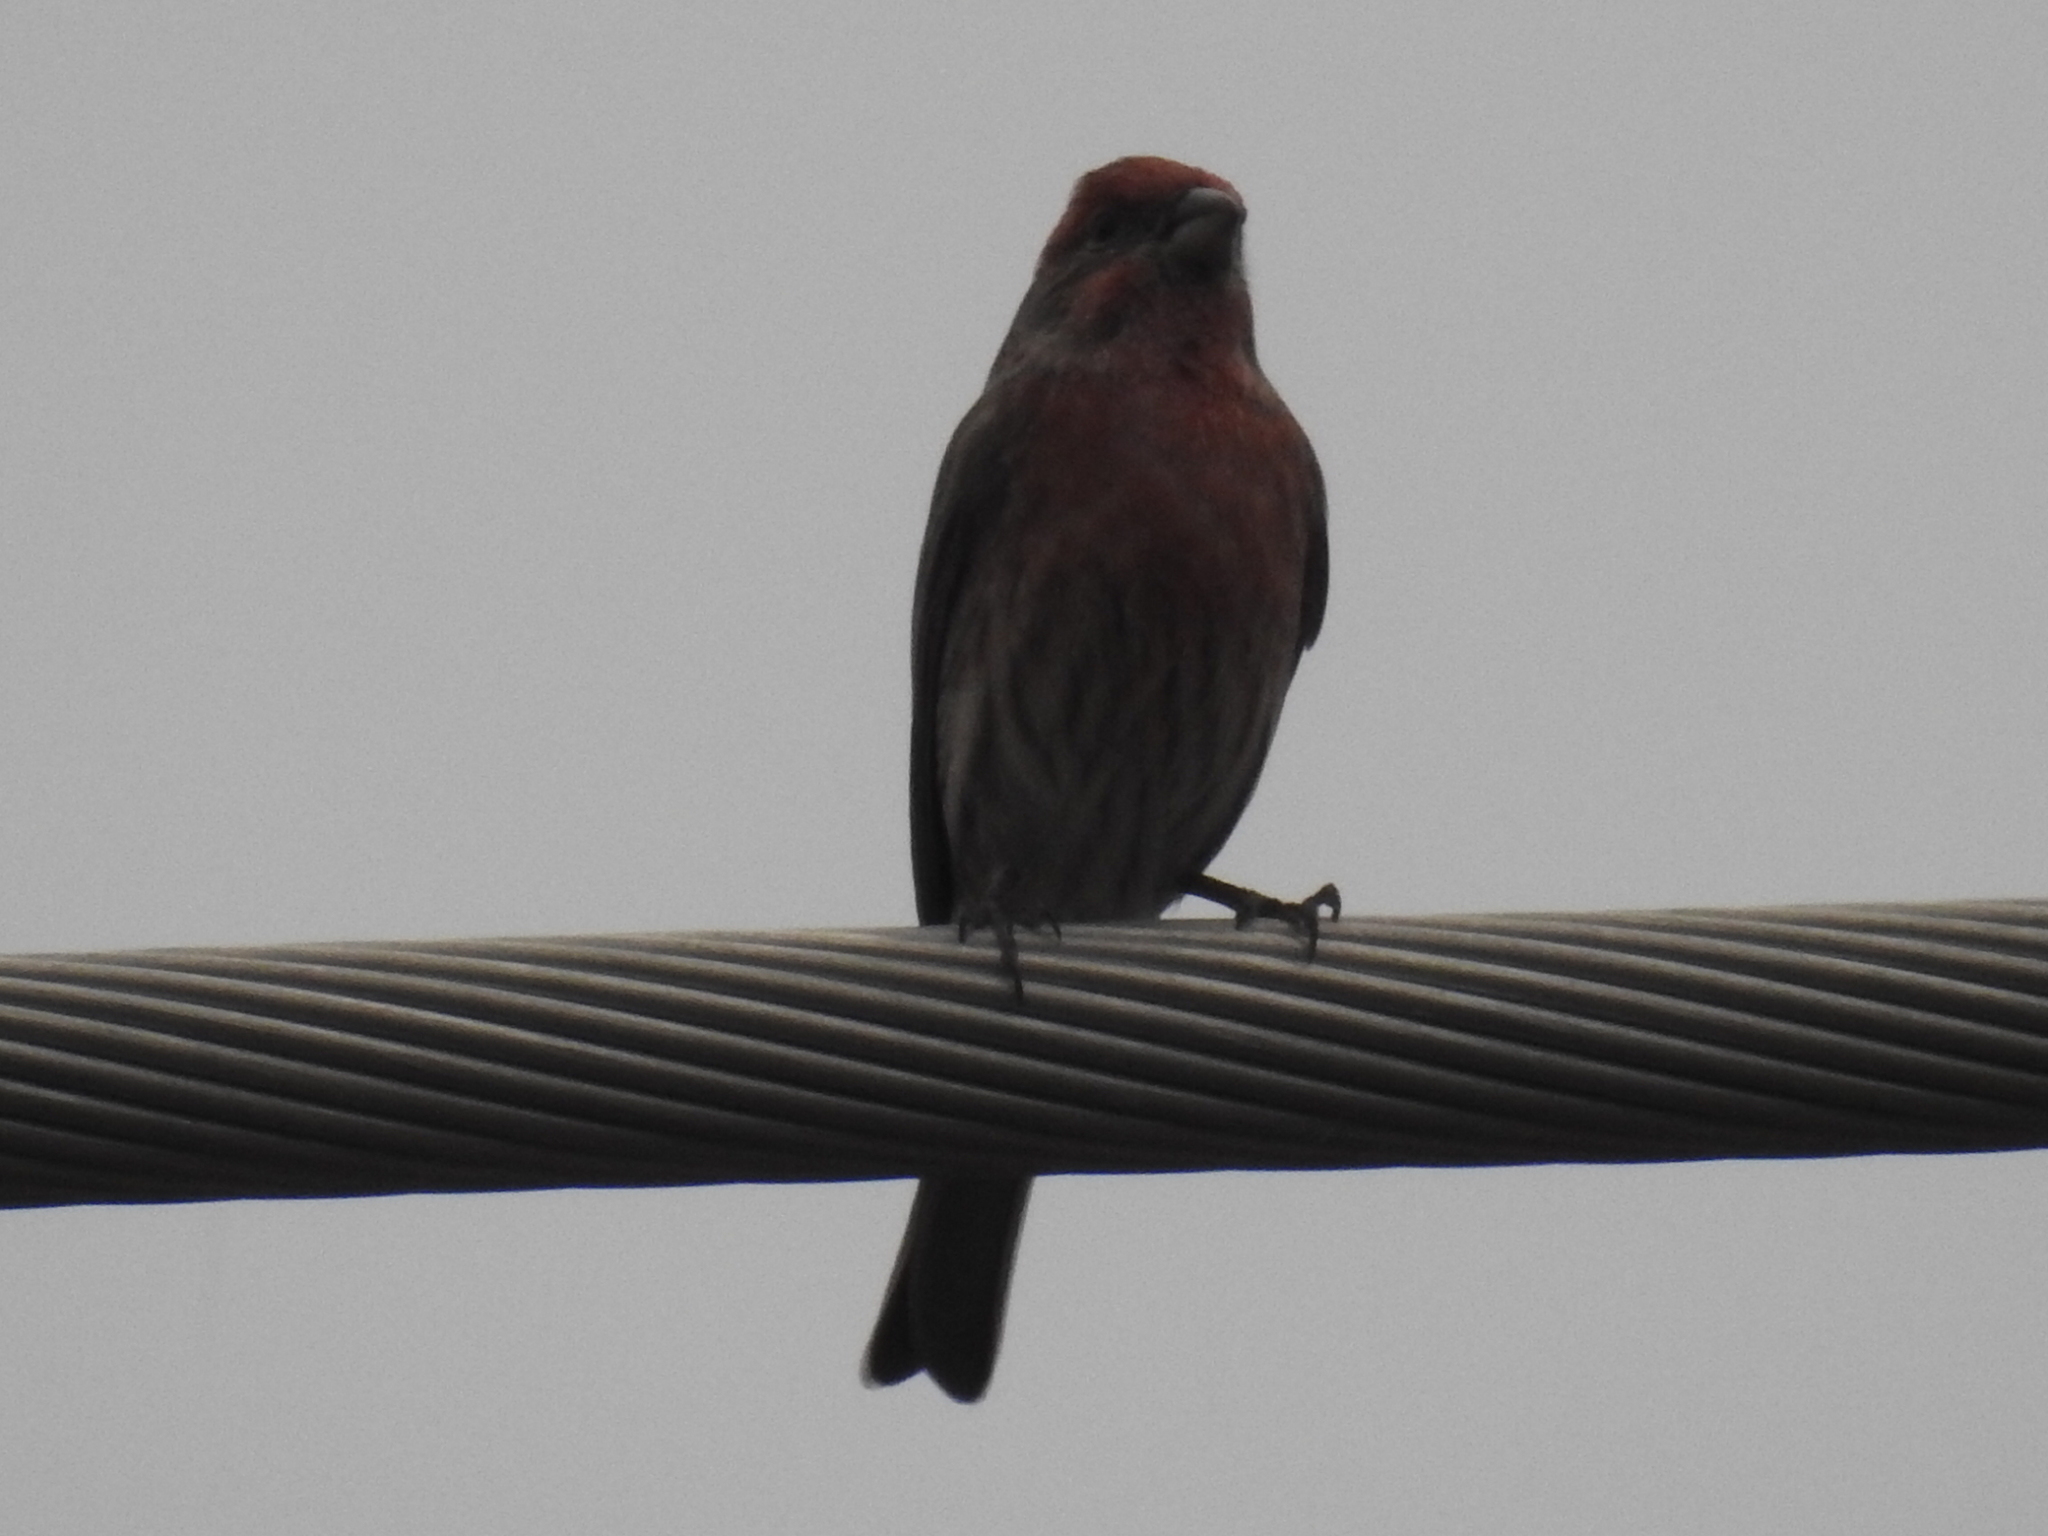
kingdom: Animalia
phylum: Chordata
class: Aves
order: Passeriformes
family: Fringillidae
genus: Haemorhous
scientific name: Haemorhous mexicanus
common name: House finch
